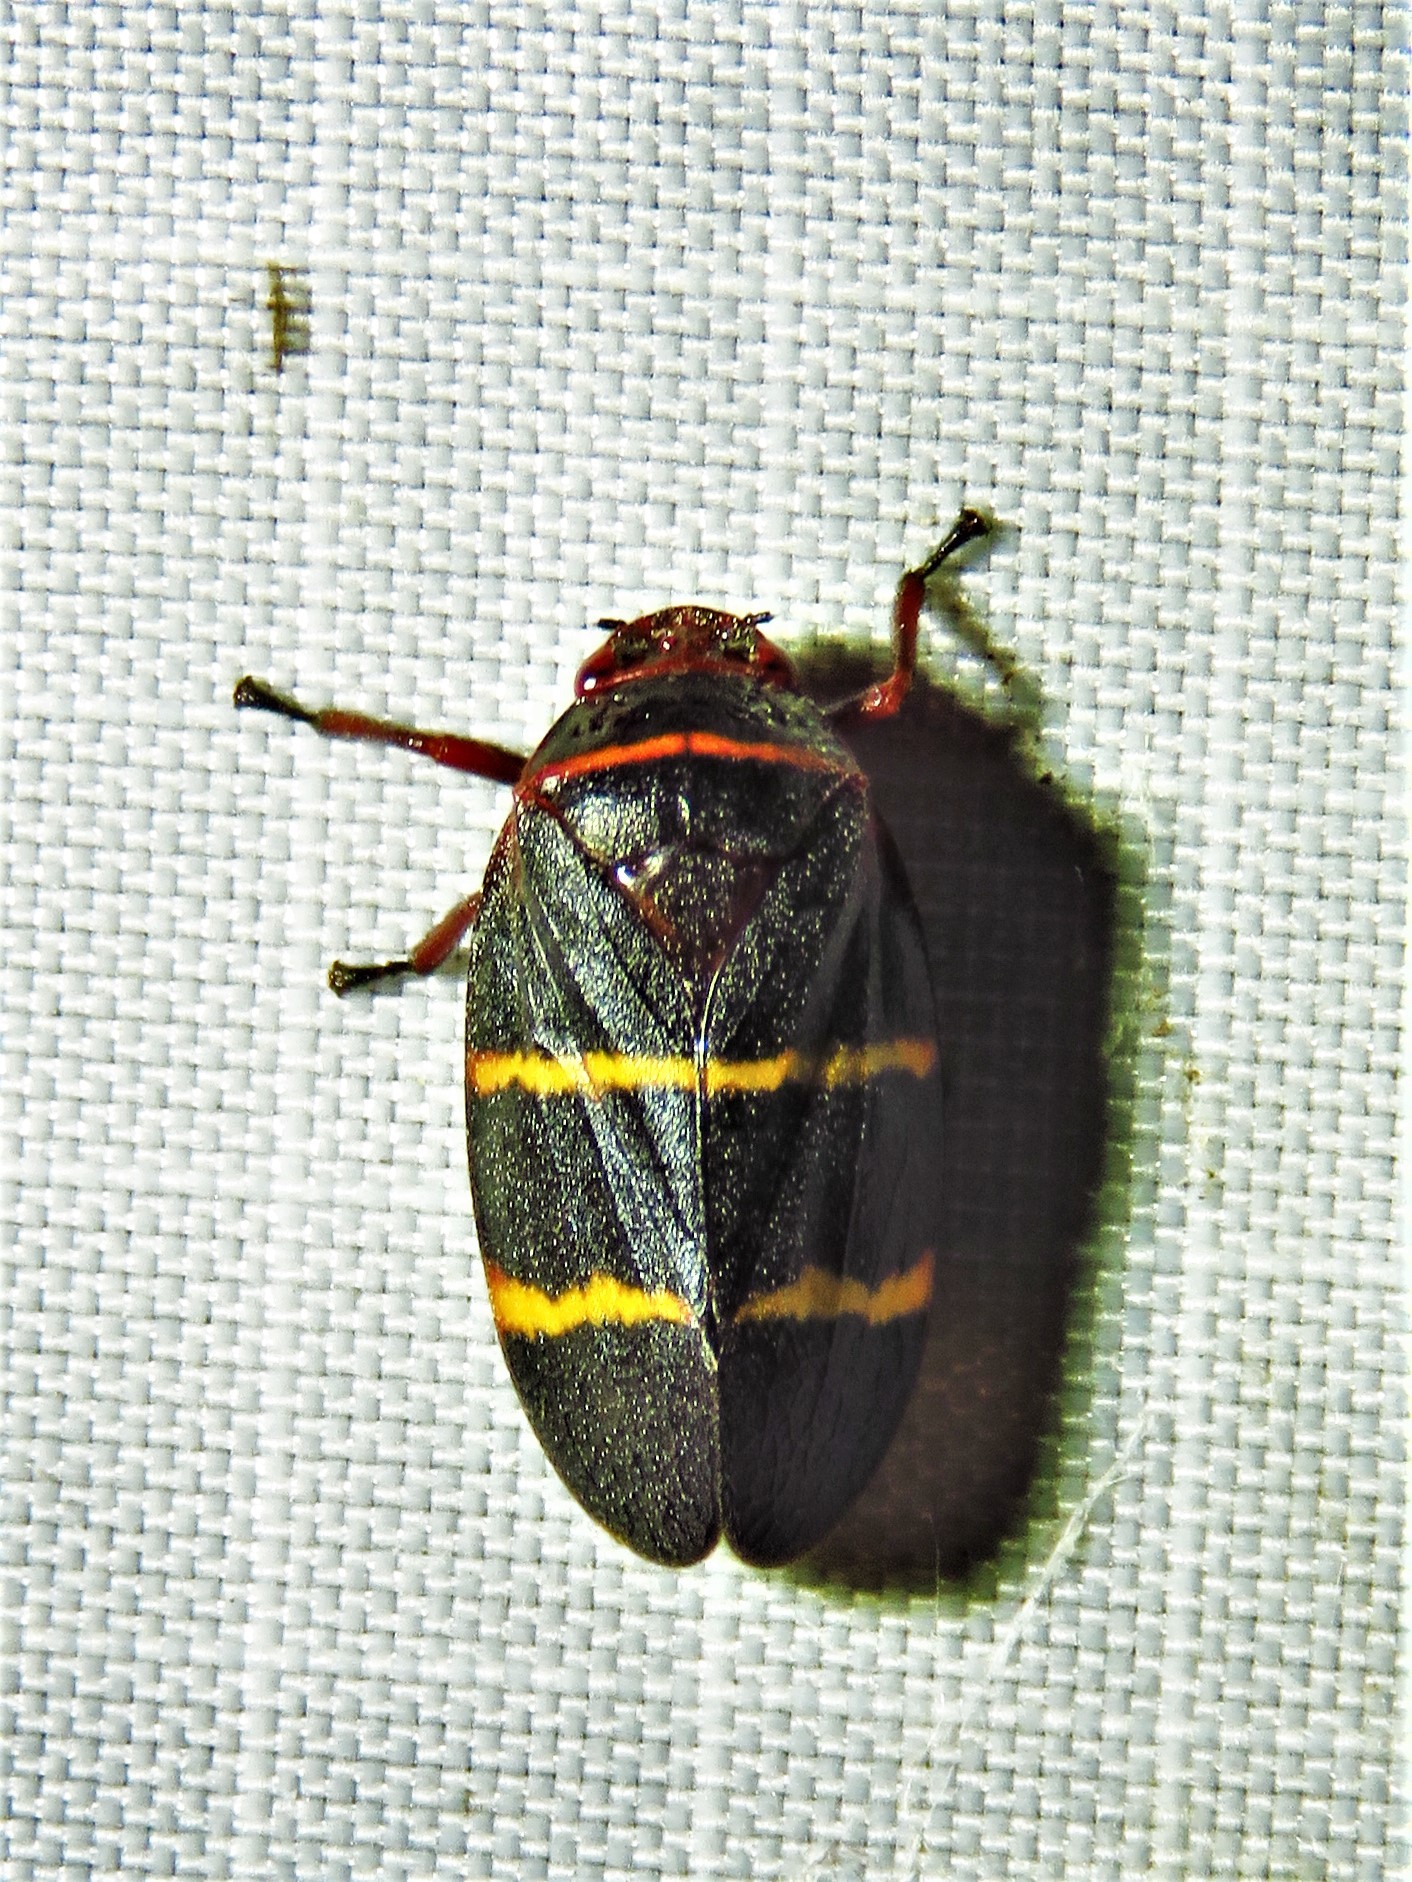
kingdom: Animalia
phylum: Arthropoda
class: Insecta
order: Hemiptera
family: Cercopidae
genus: Prosapia
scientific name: Prosapia bicincta
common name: Twolined spittlebug
